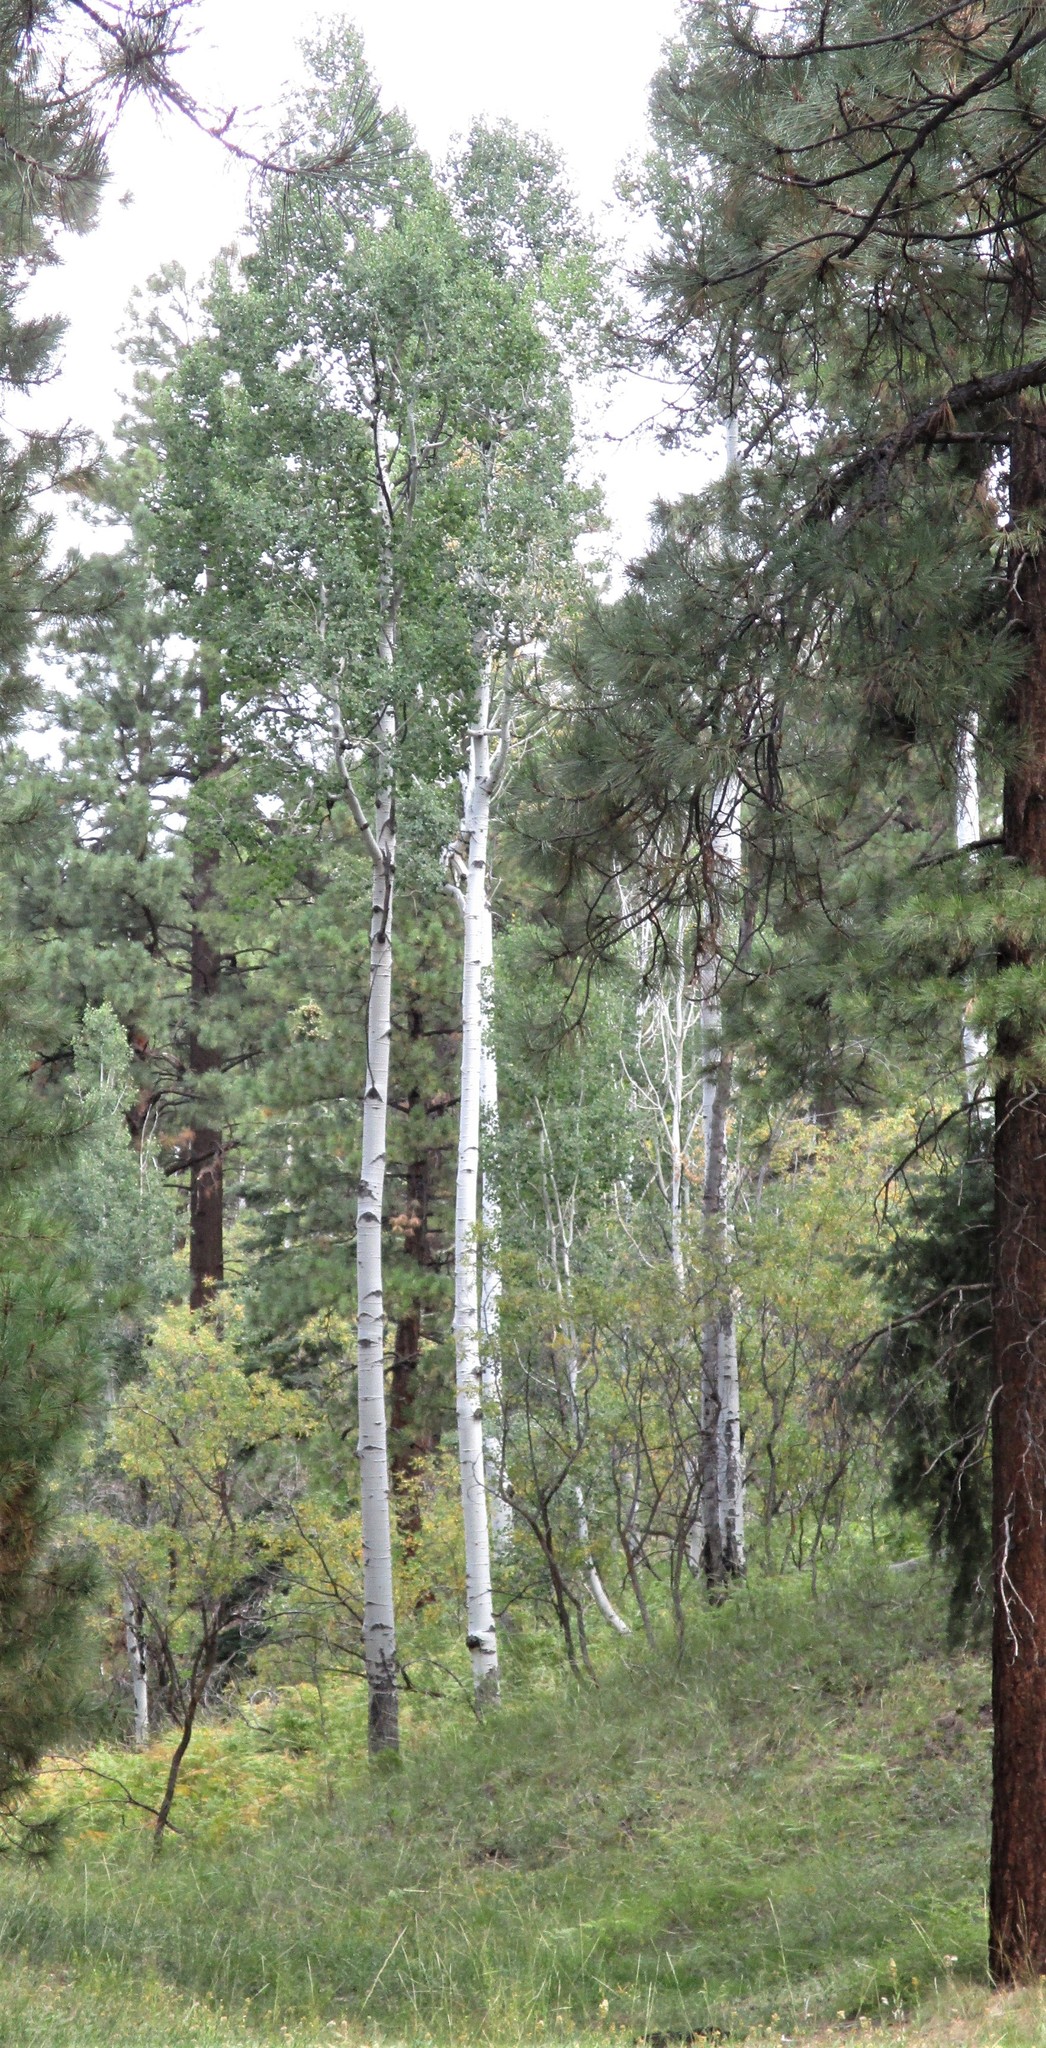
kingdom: Plantae
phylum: Tracheophyta
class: Magnoliopsida
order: Malpighiales
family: Salicaceae
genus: Populus
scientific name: Populus tremuloides
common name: Quaking aspen
